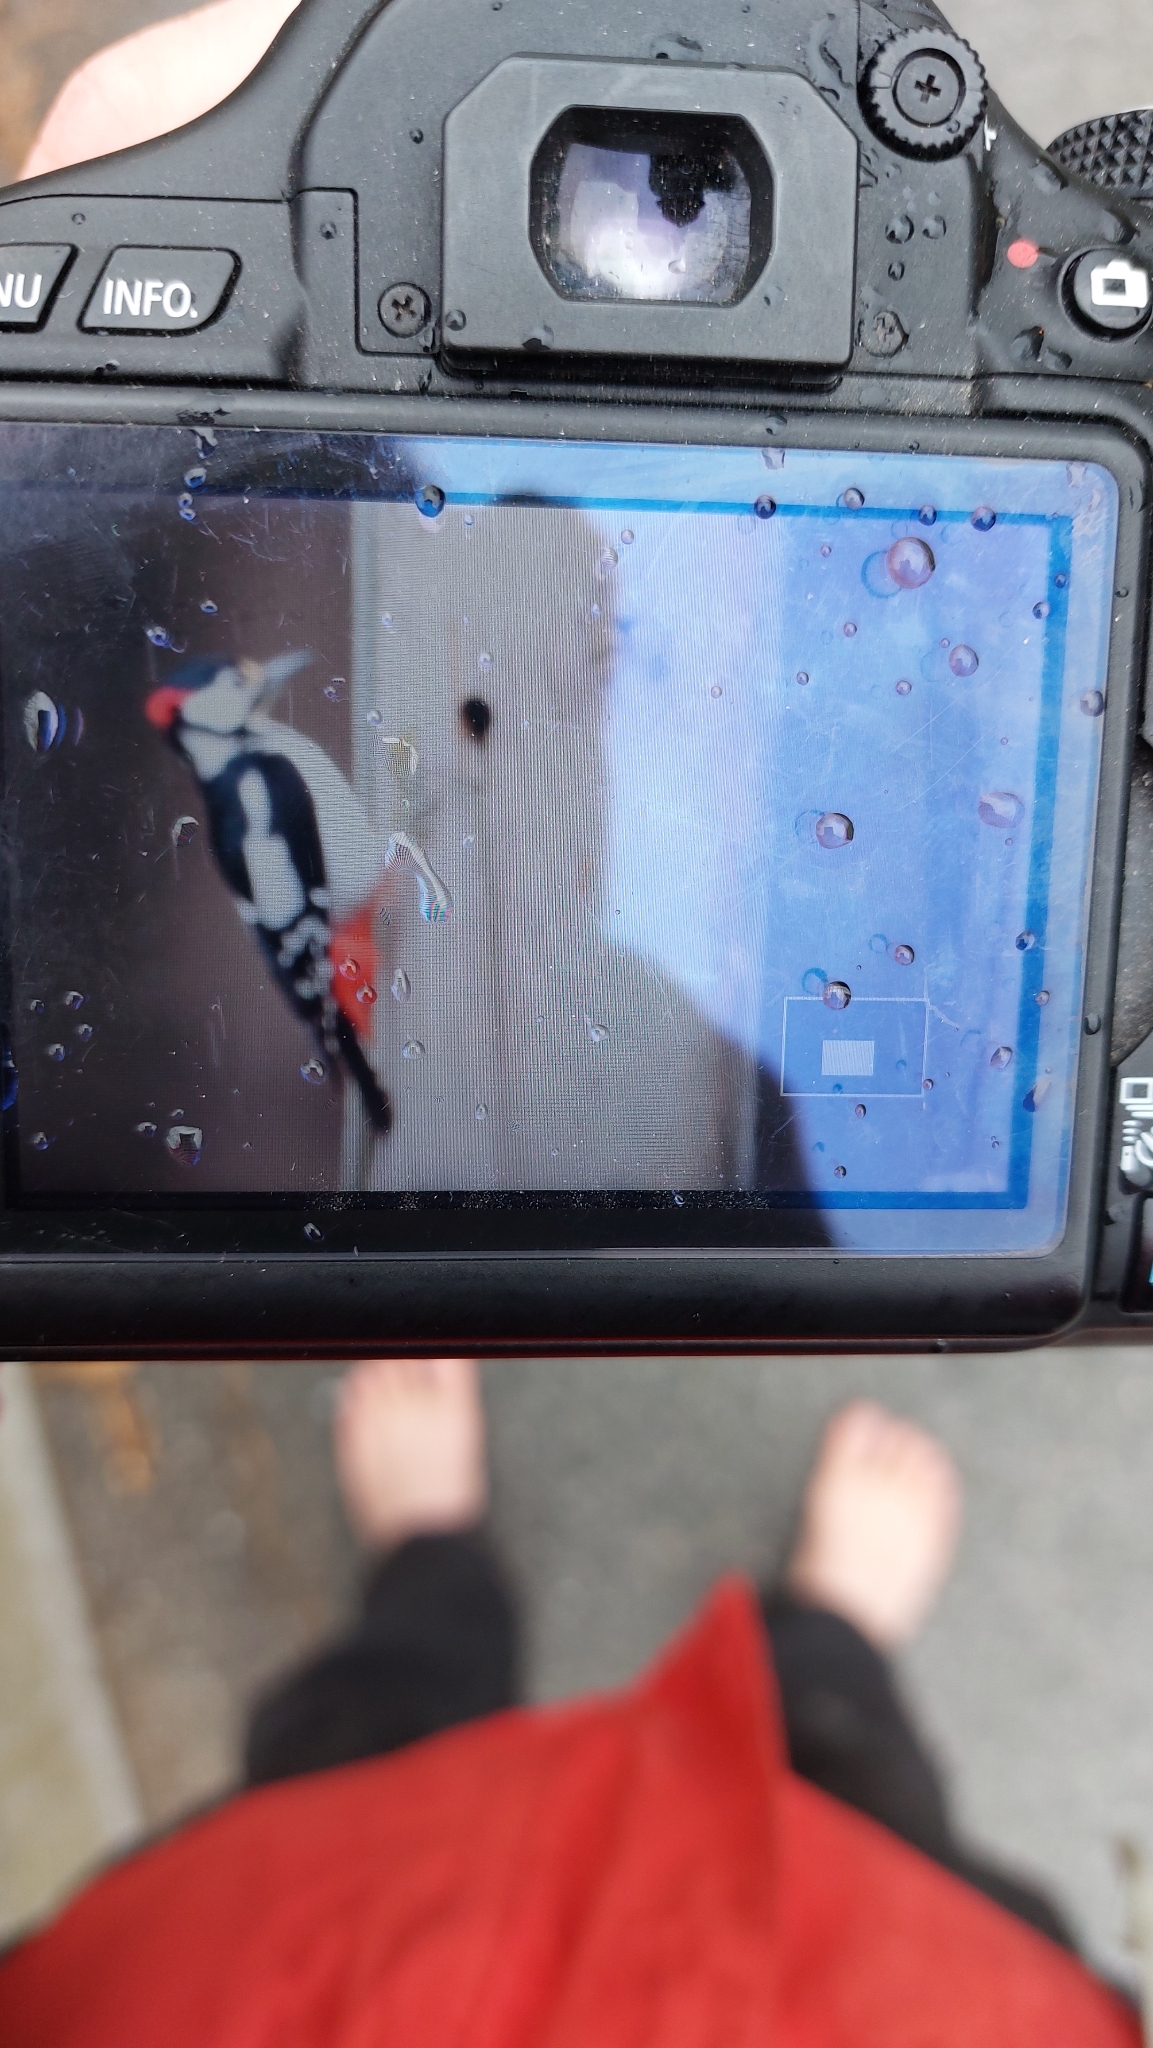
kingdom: Animalia
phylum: Chordata
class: Aves
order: Piciformes
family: Picidae
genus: Dendrocopos
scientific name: Dendrocopos major
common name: Great spotted woodpecker
